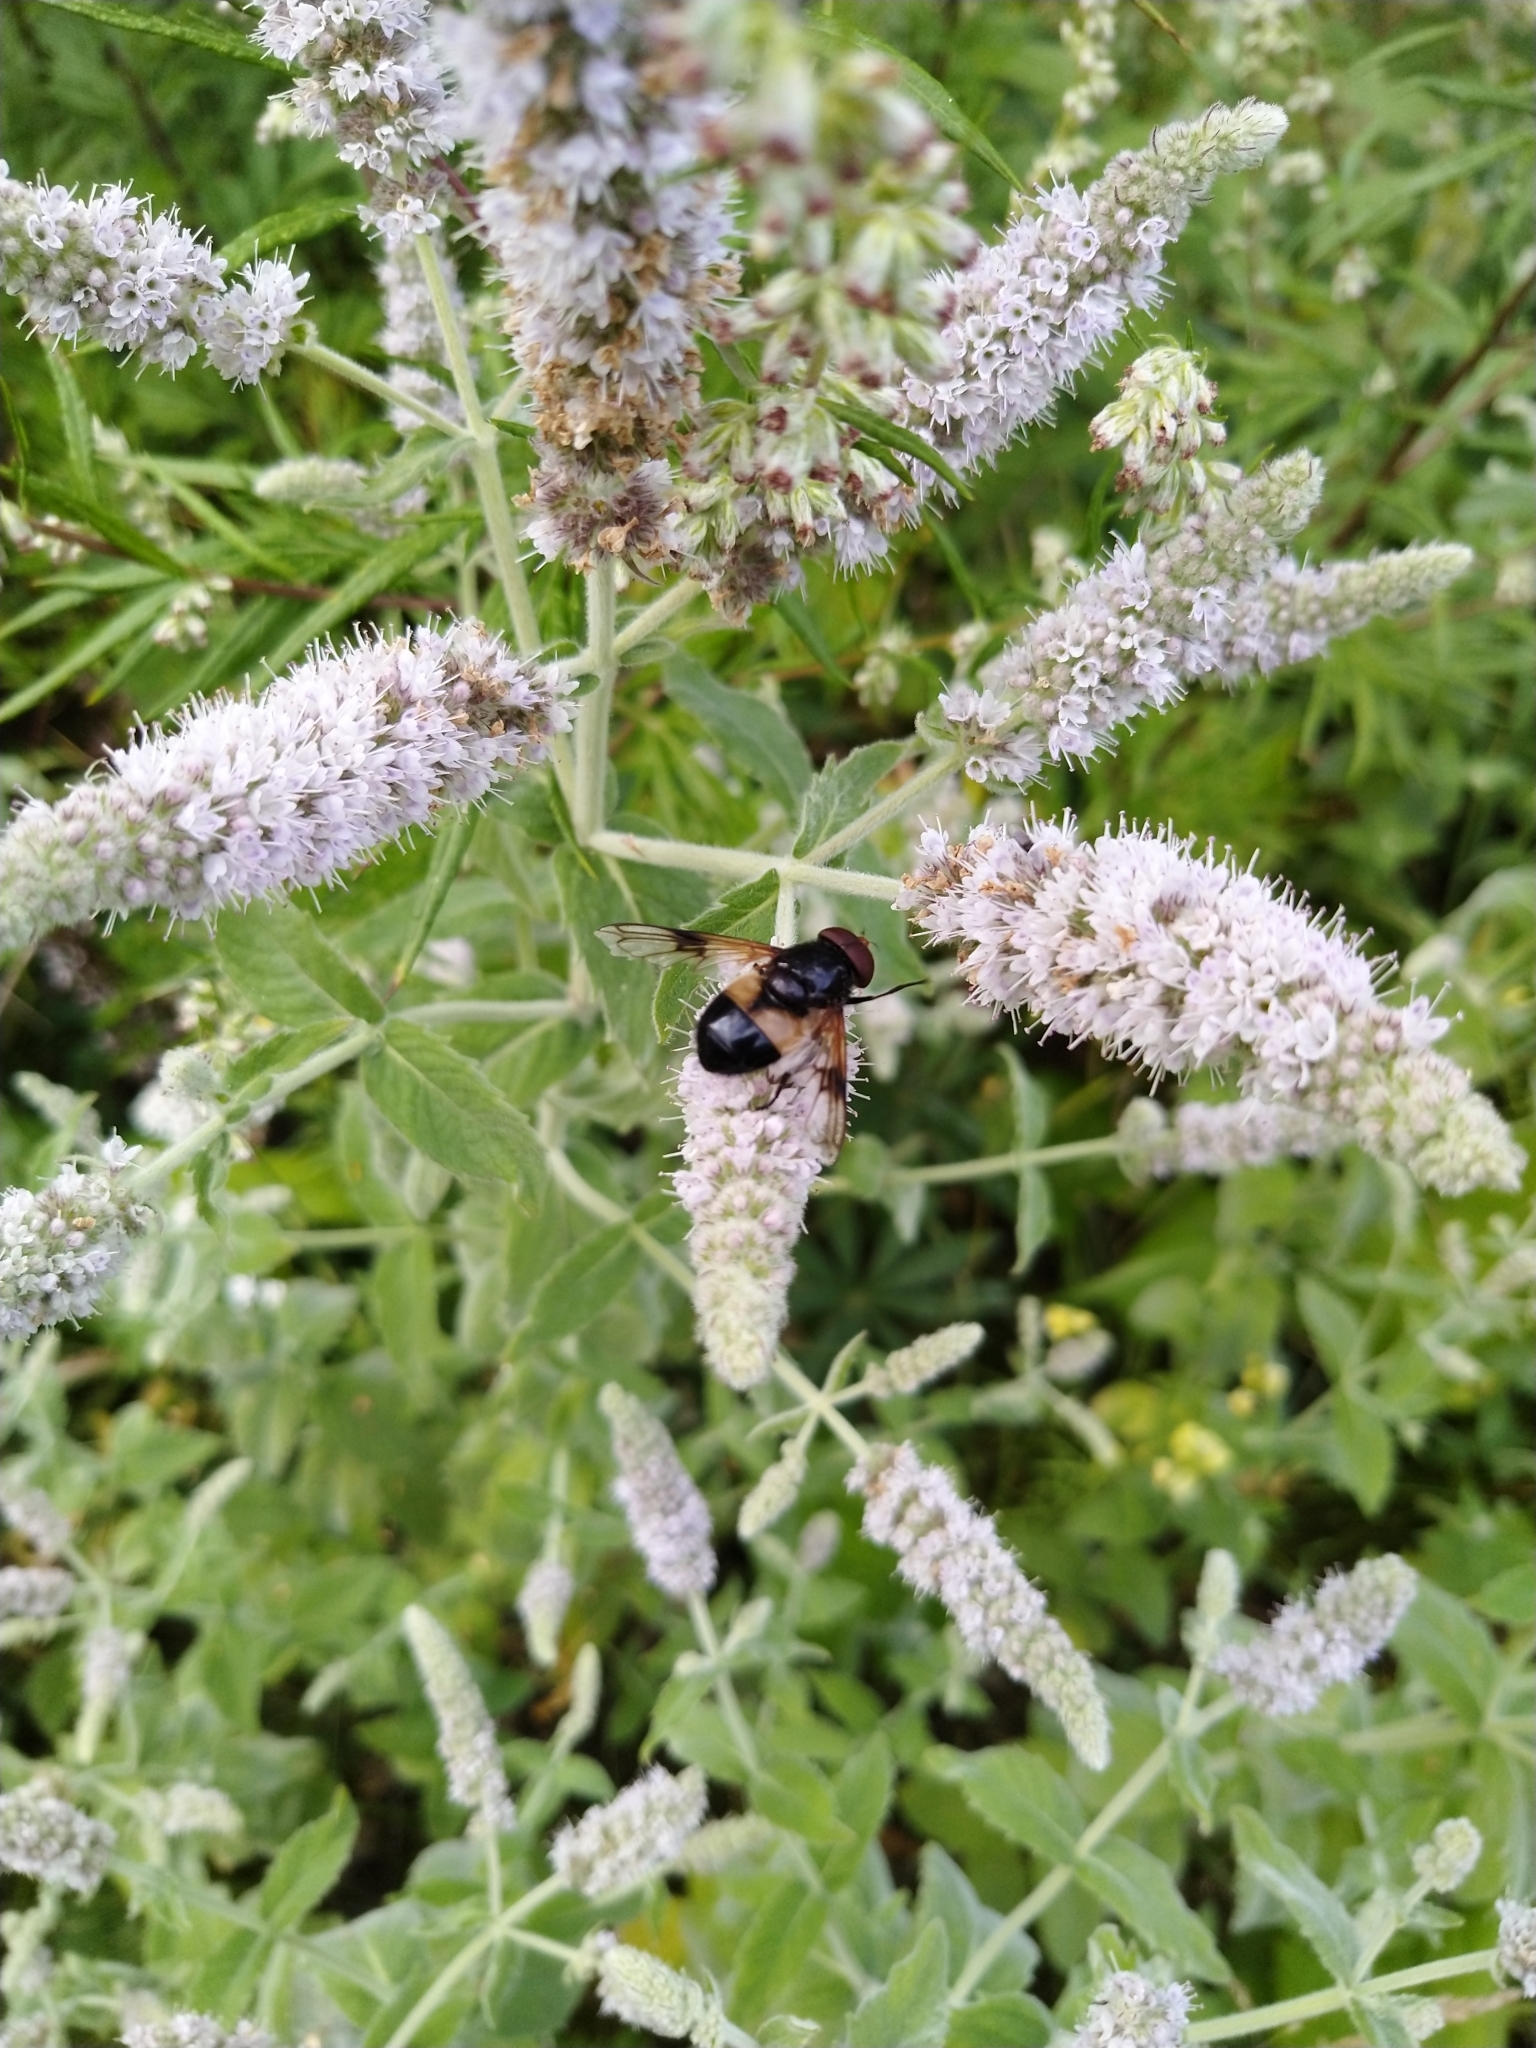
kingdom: Animalia
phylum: Arthropoda
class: Insecta
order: Diptera
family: Syrphidae
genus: Volucella
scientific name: Volucella pellucens
